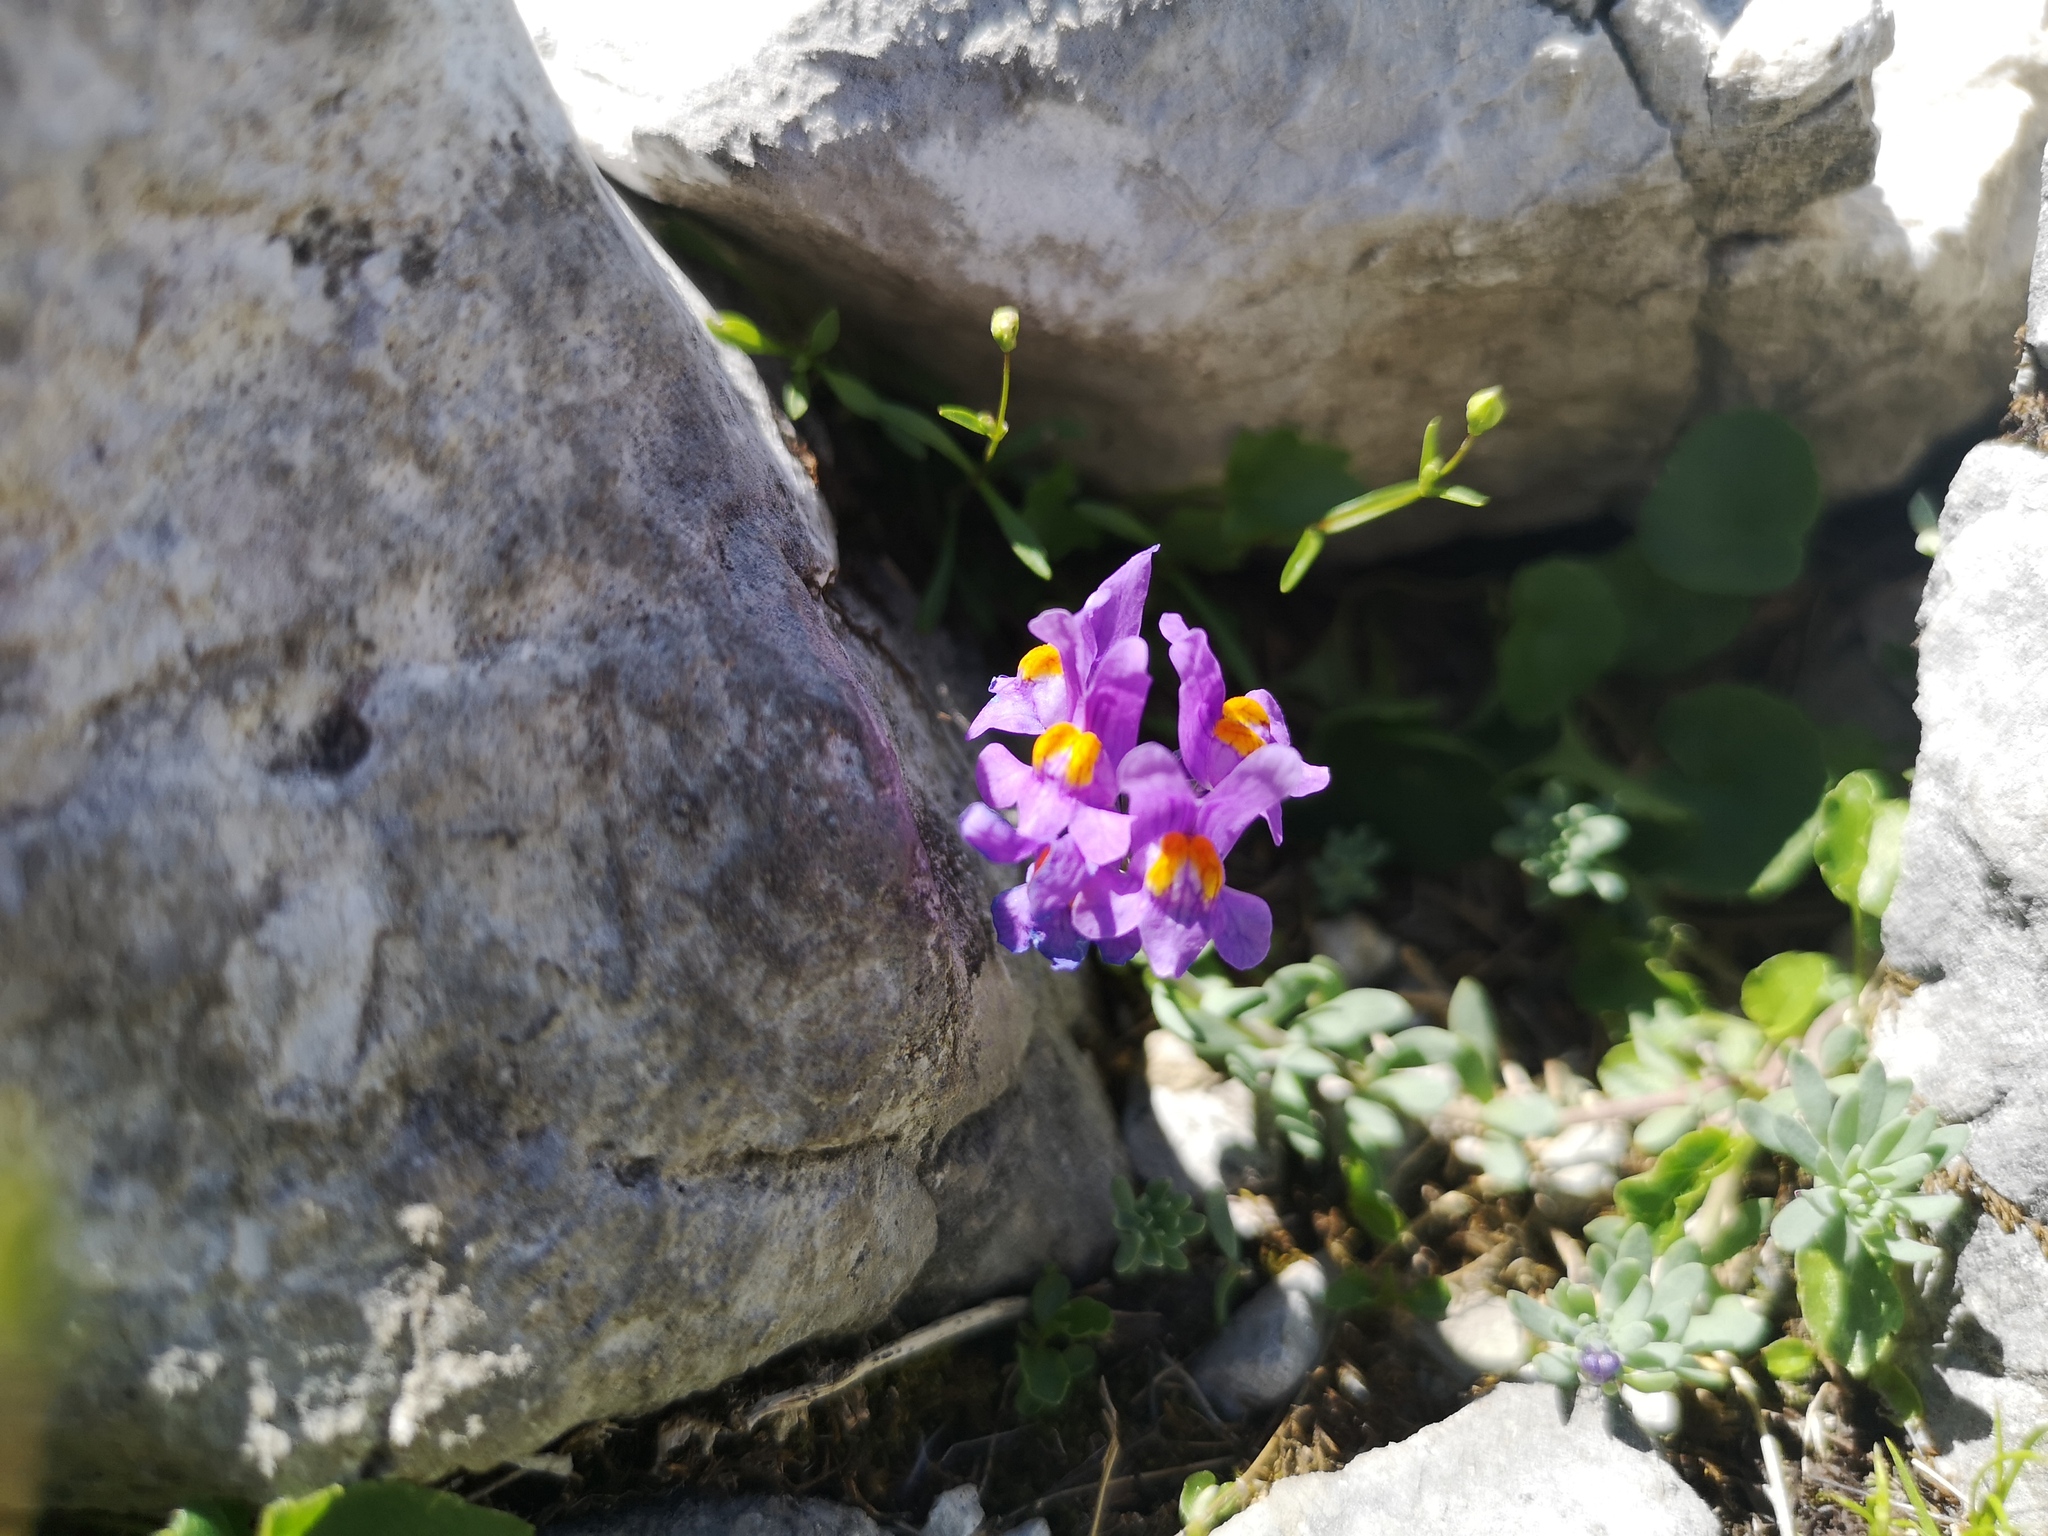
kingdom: Plantae
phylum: Tracheophyta
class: Magnoliopsida
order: Lamiales
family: Plantaginaceae
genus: Linaria
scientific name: Linaria alpina
